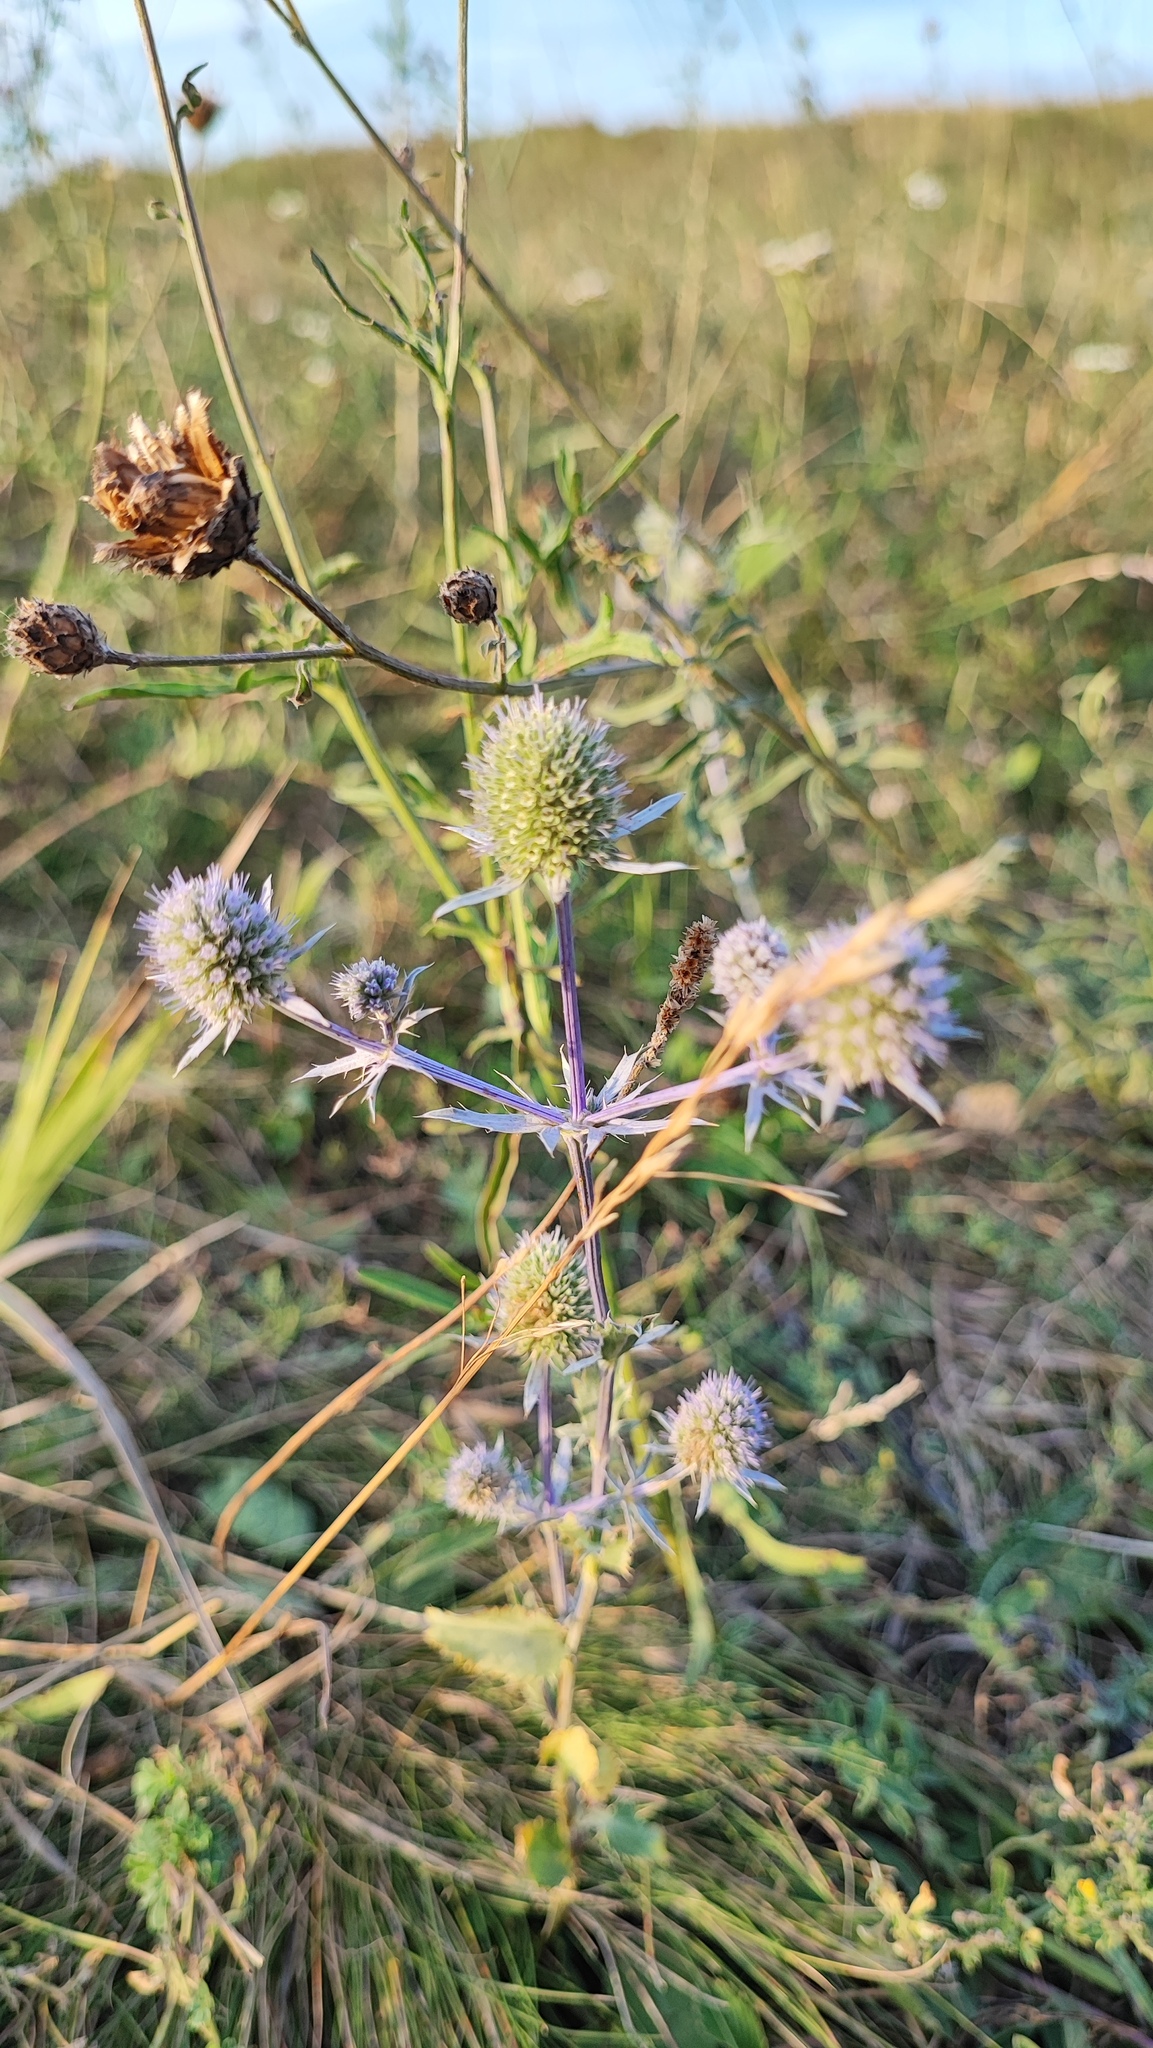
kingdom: Plantae
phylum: Tracheophyta
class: Magnoliopsida
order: Apiales
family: Apiaceae
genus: Eryngium
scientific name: Eryngium planum
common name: Blue eryngo
